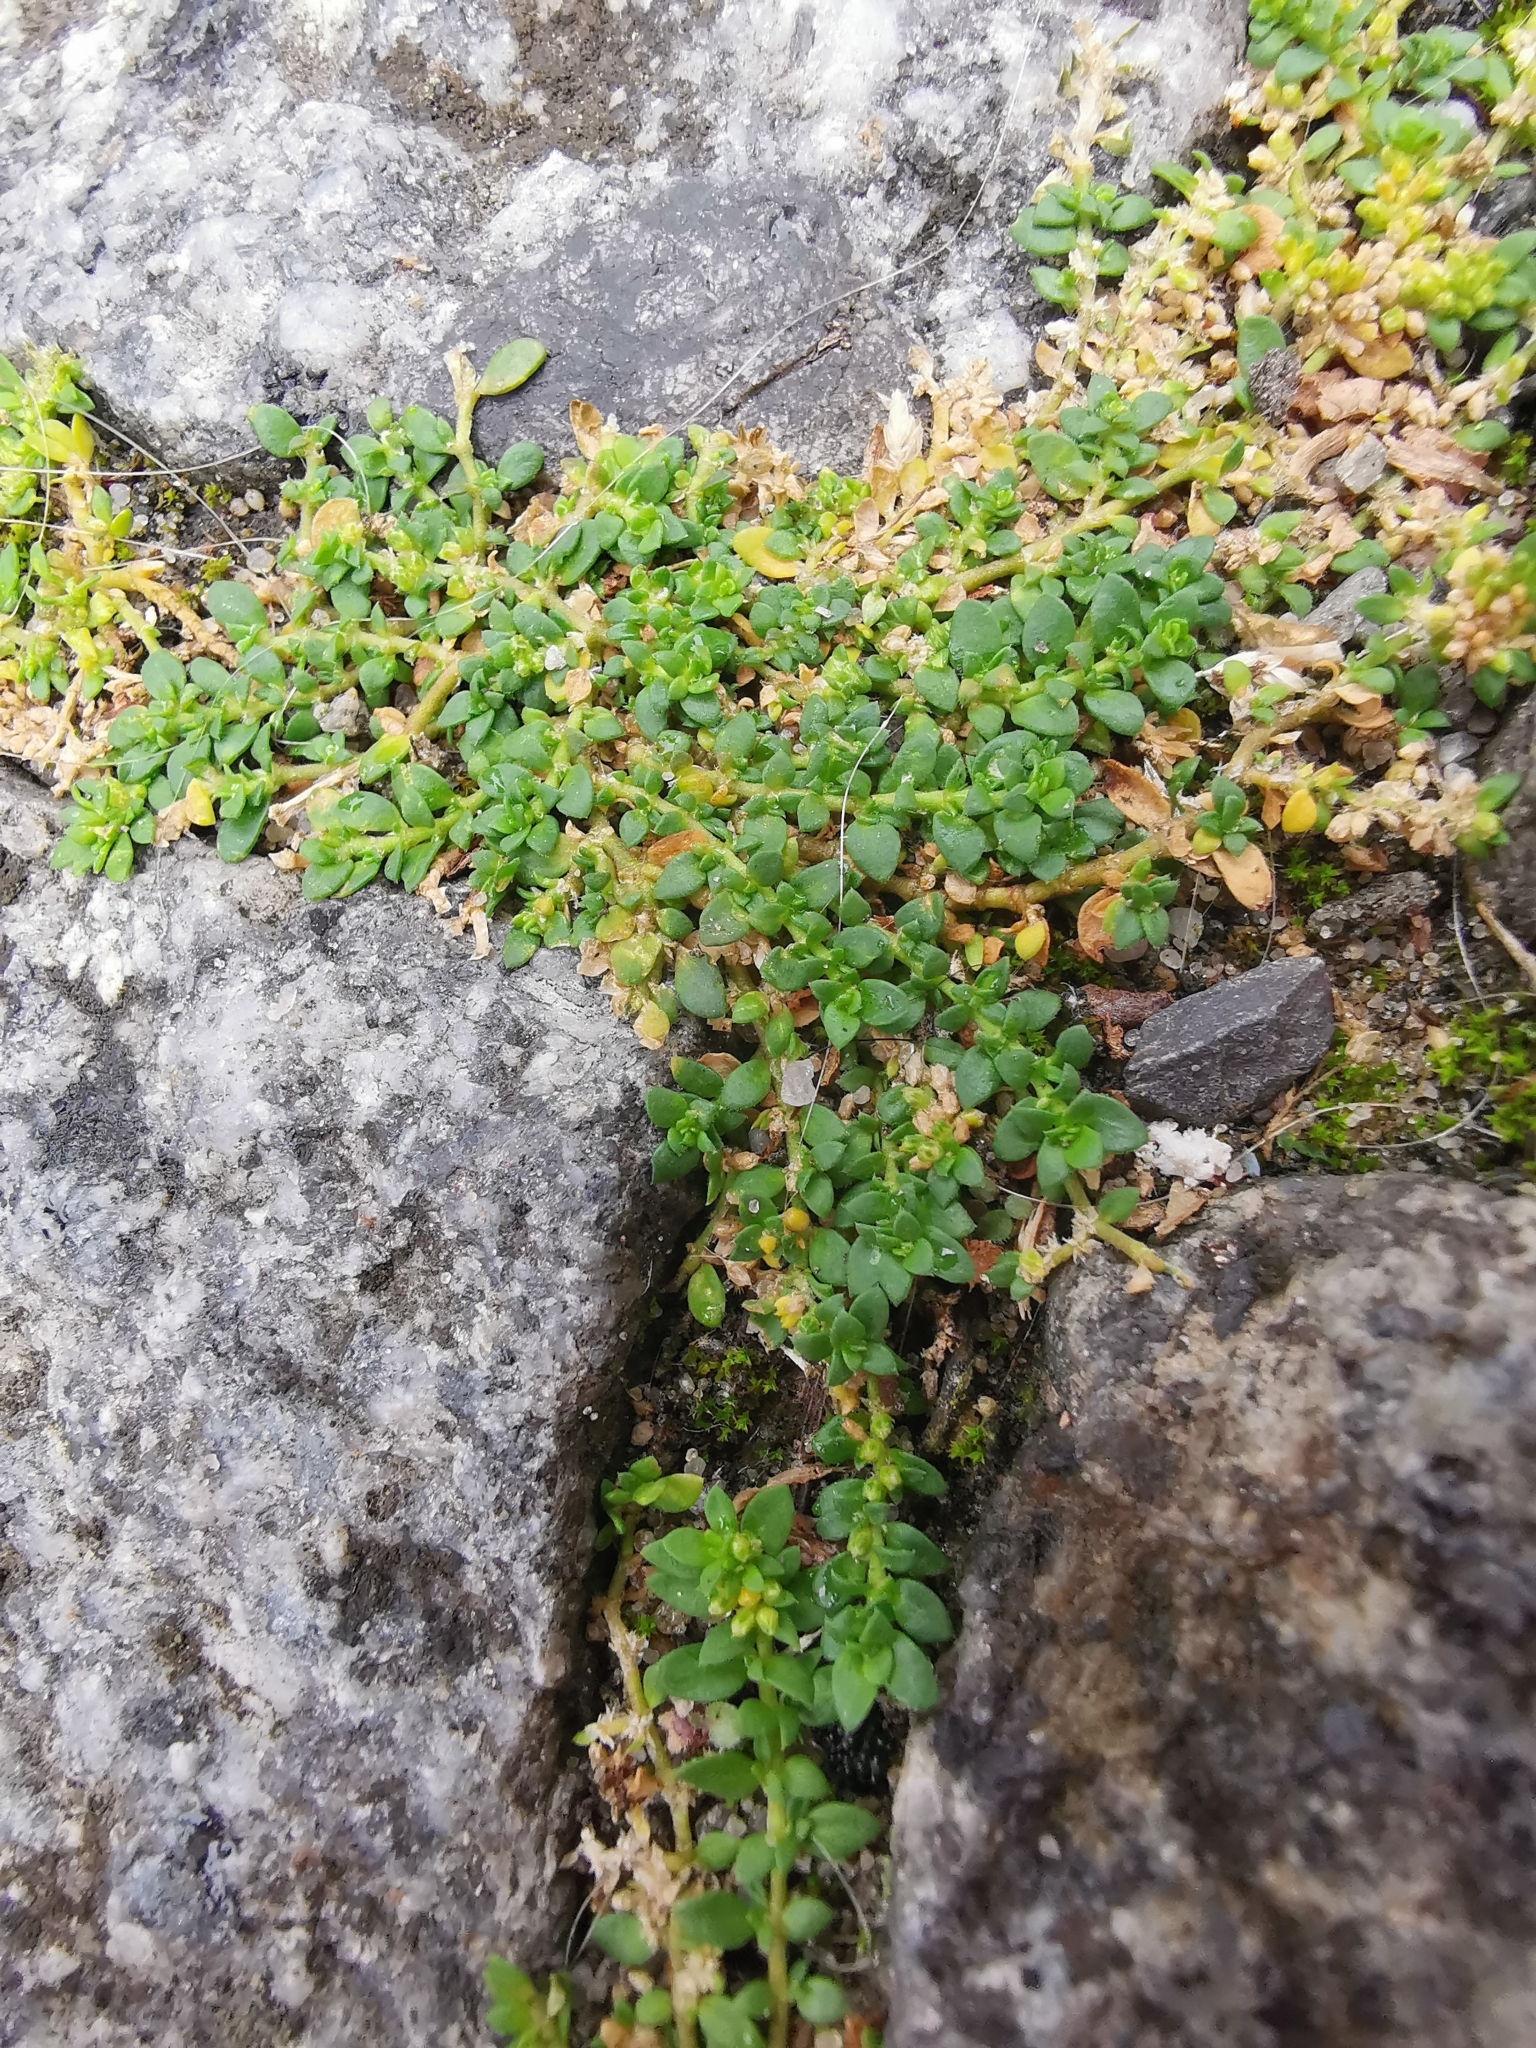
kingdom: Plantae
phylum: Tracheophyta
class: Magnoliopsida
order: Caryophyllales
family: Caryophyllaceae
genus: Herniaria
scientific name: Herniaria glabra
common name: Smooth rupturewort
